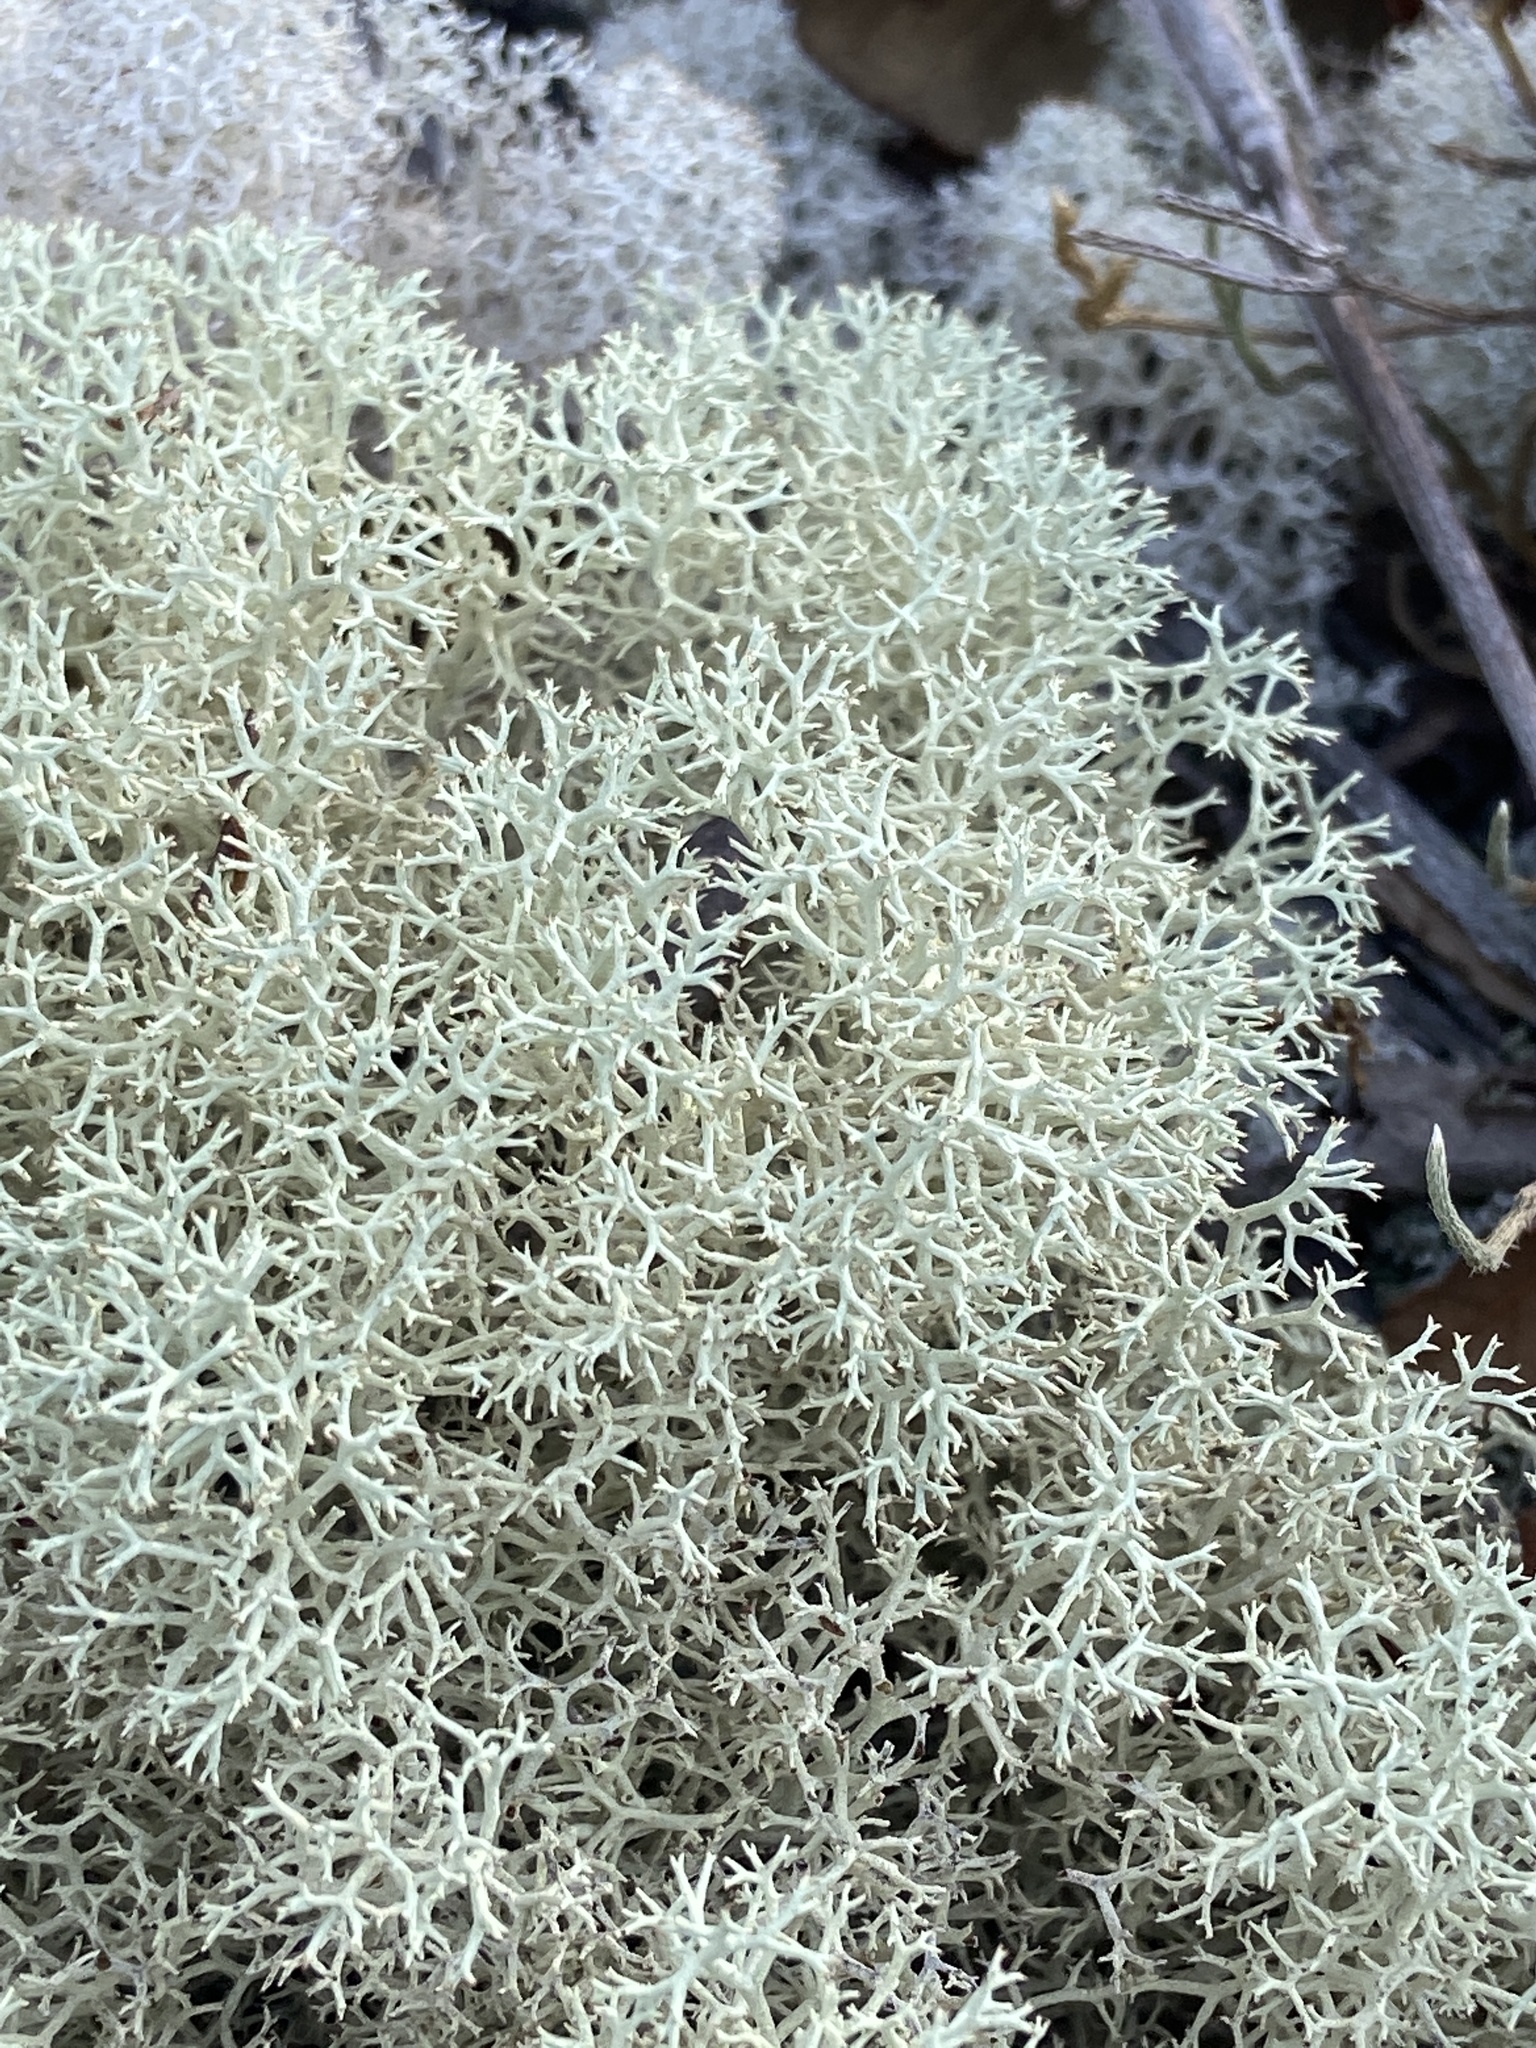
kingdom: Fungi
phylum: Ascomycota
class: Lecanoromycetes
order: Lecanorales
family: Cladoniaceae
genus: Cladonia
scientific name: Cladonia subtenuis
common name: Dixie reindeer lichen
